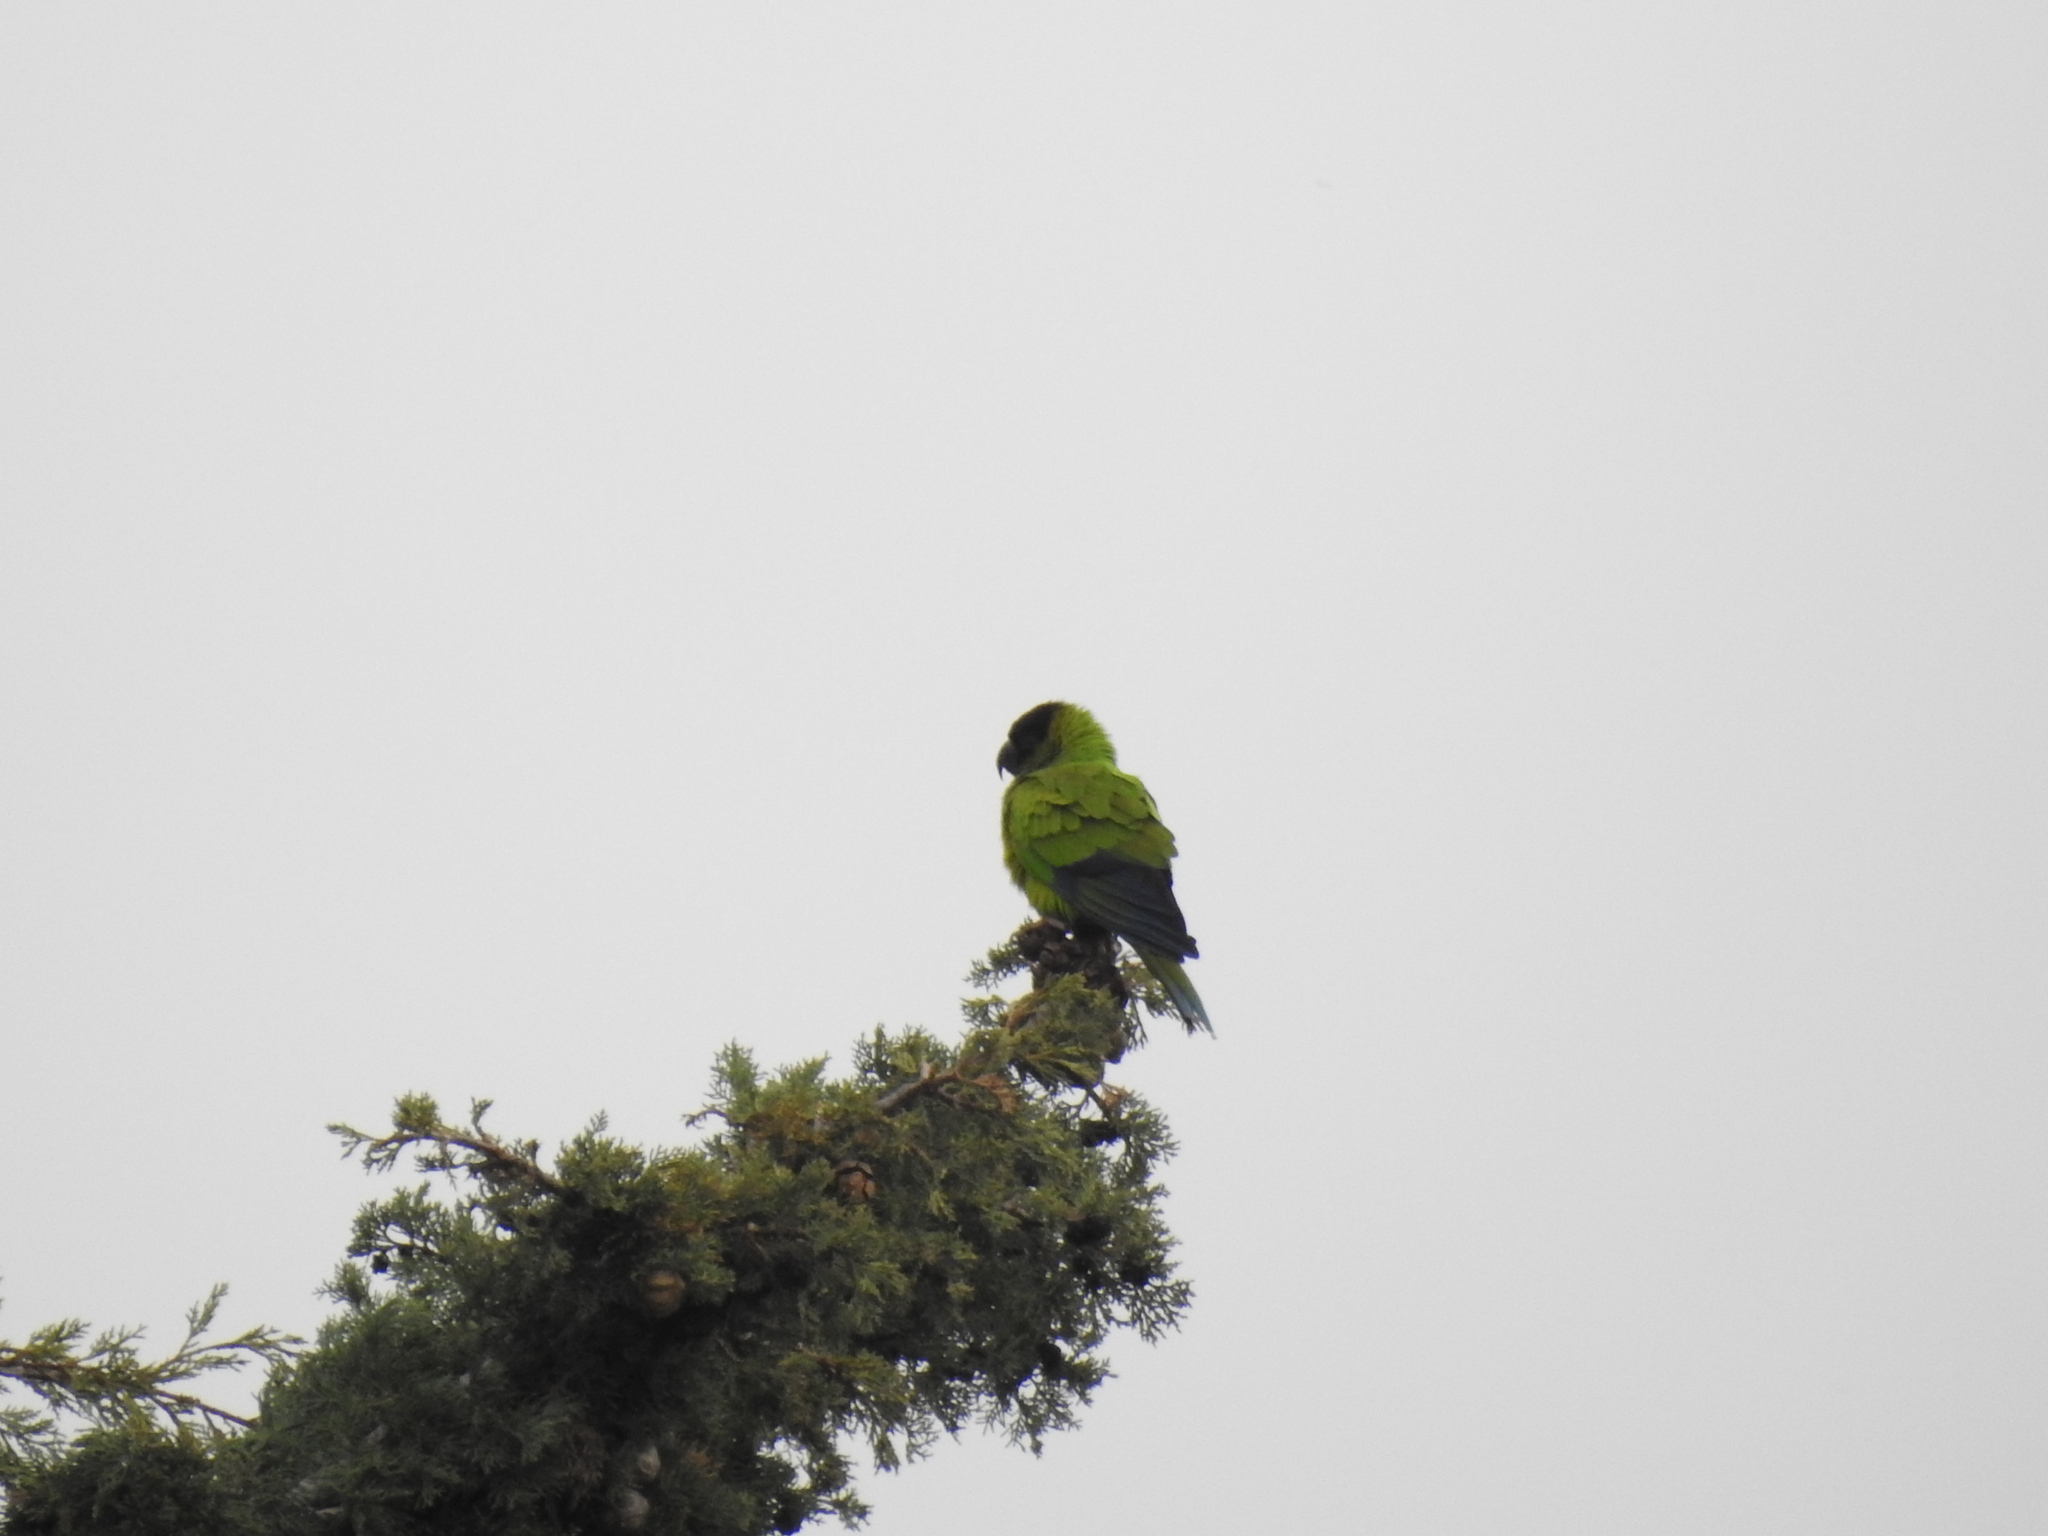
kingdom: Animalia
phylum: Chordata
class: Aves
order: Psittaciformes
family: Psittacidae
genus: Nandayus
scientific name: Nandayus nenday
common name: Nanday parakeet
